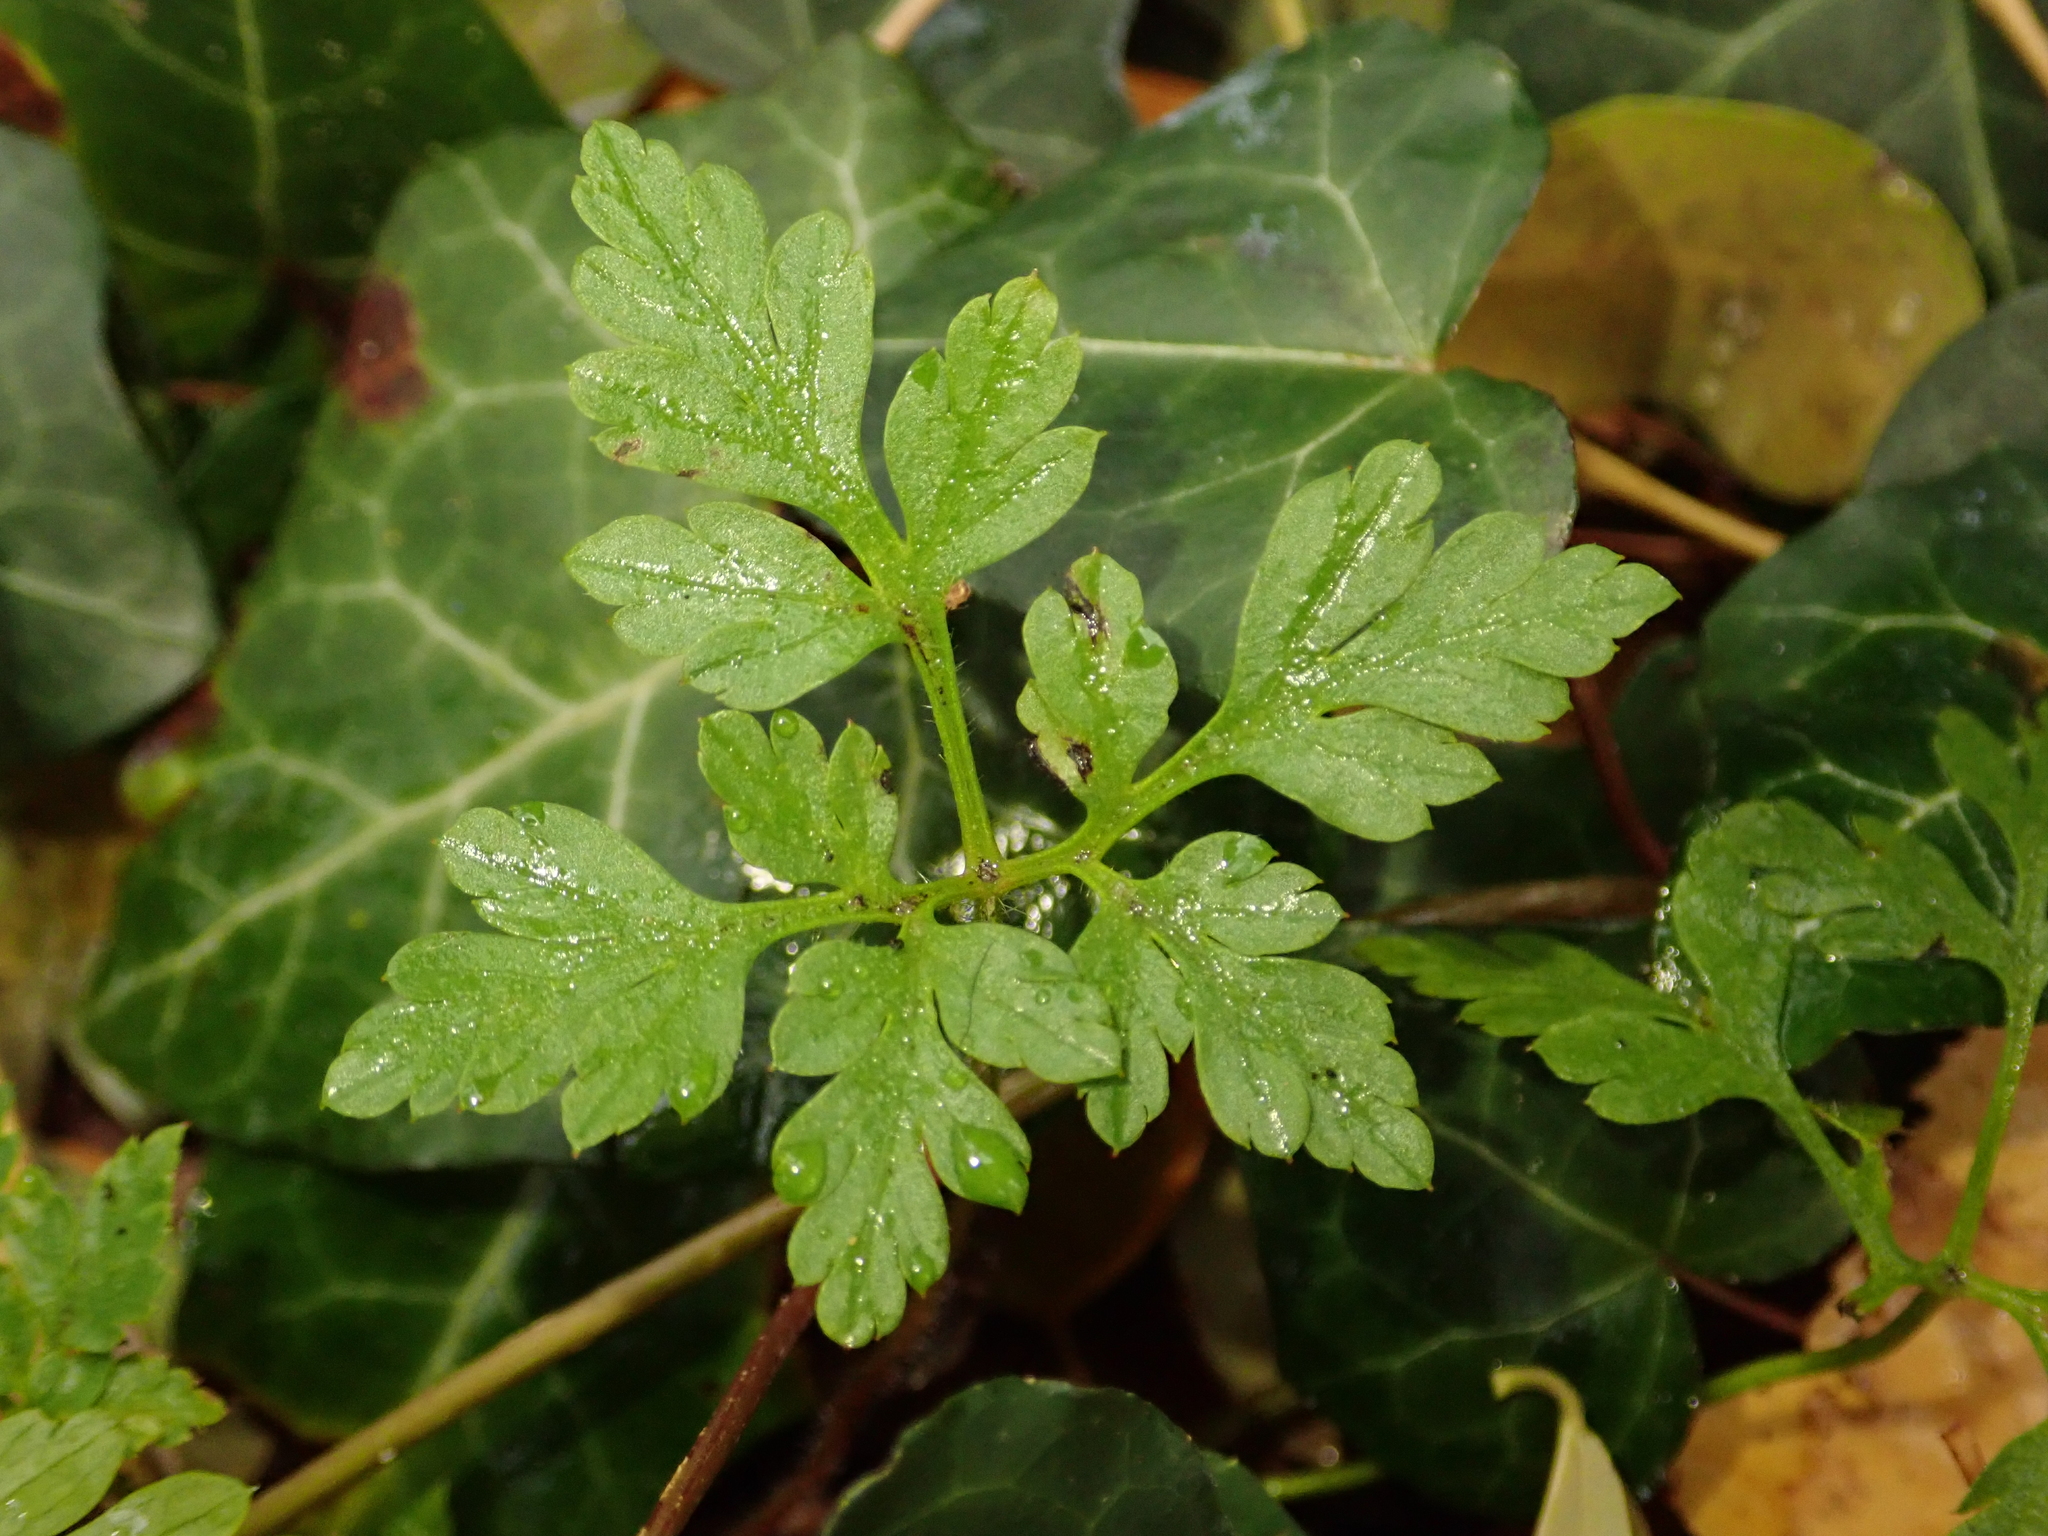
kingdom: Plantae
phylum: Tracheophyta
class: Magnoliopsida
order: Geraniales
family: Geraniaceae
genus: Geranium
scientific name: Geranium robertianum
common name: Herb-robert
